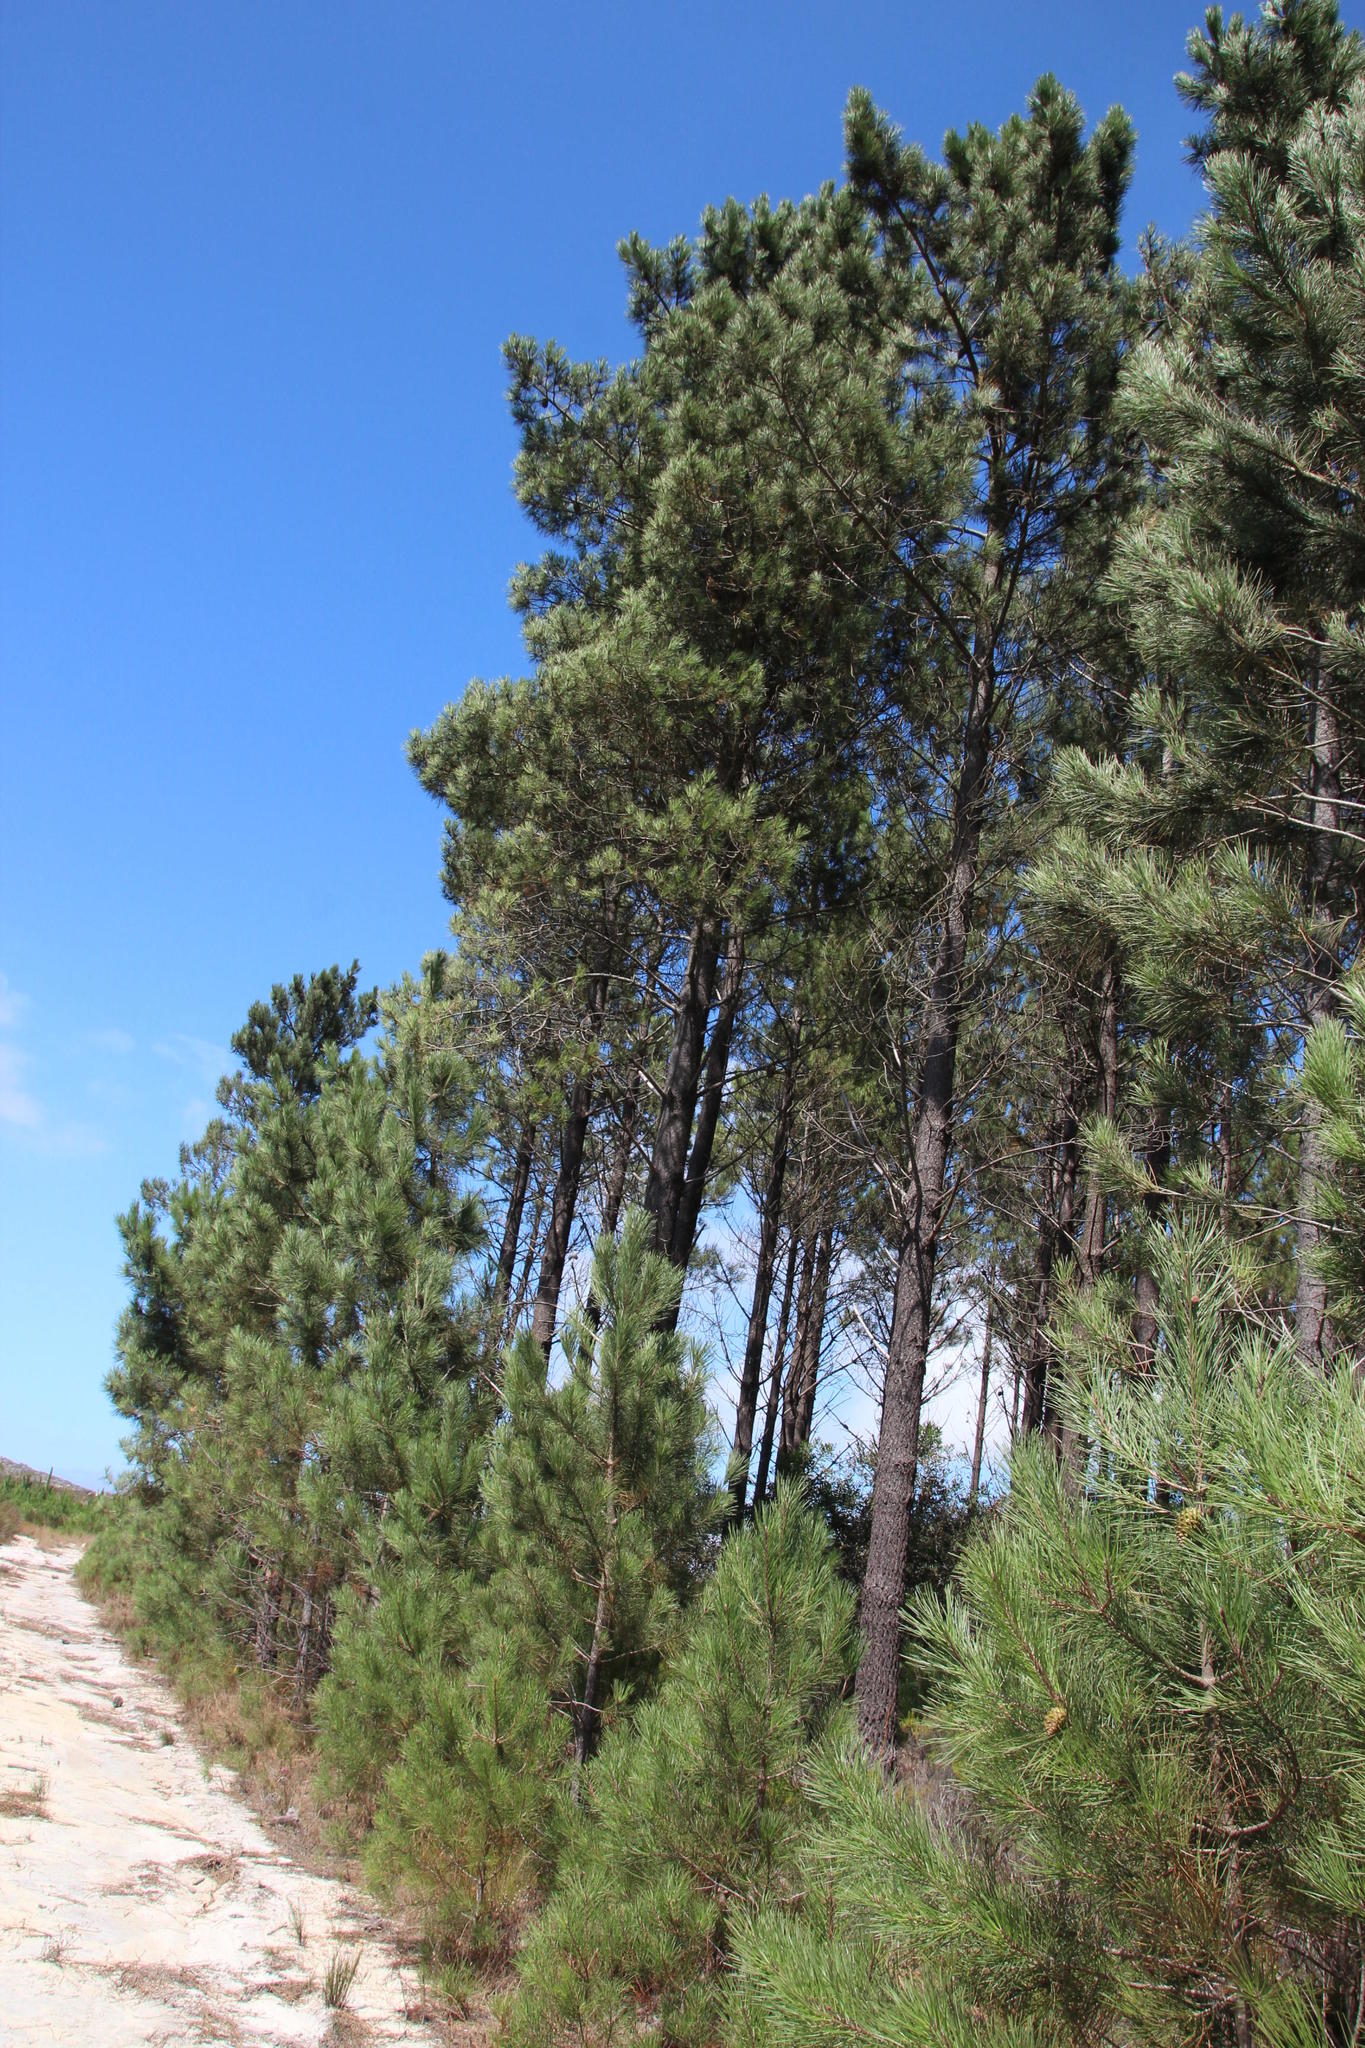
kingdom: Plantae
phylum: Tracheophyta
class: Pinopsida
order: Pinales
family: Pinaceae
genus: Pinus
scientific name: Pinus pinaster
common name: Maritime pine
